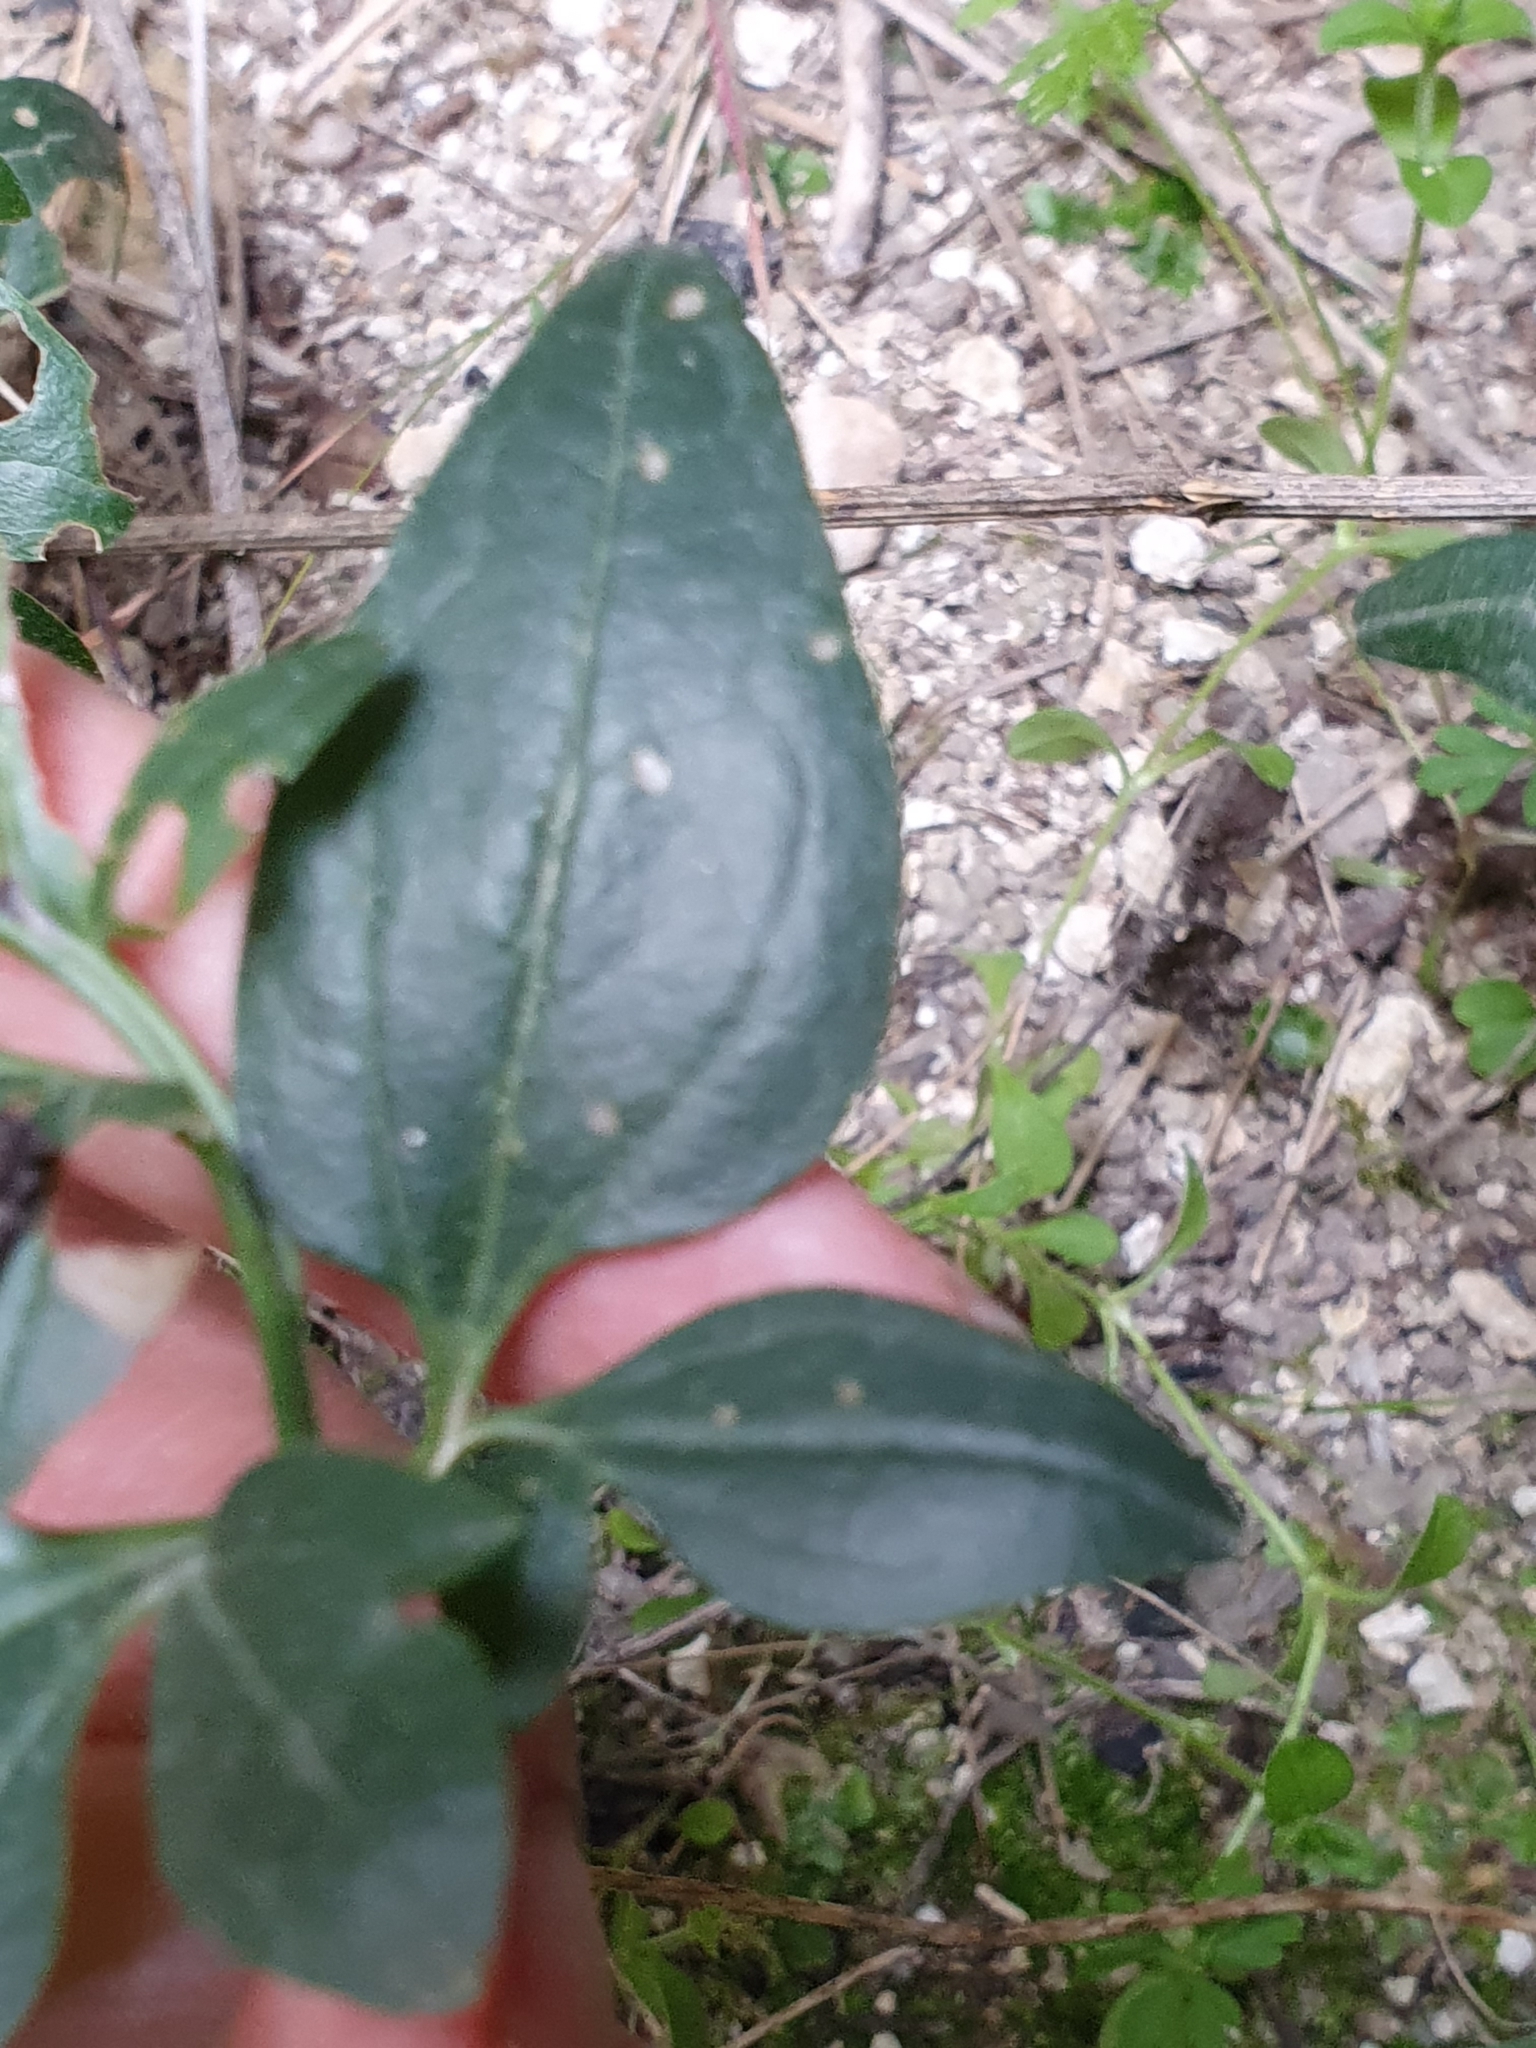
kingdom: Plantae
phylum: Tracheophyta
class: Magnoliopsida
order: Ranunculales
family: Ranunculaceae
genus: Clematis
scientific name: Clematis flammula
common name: Virgin's-bower
